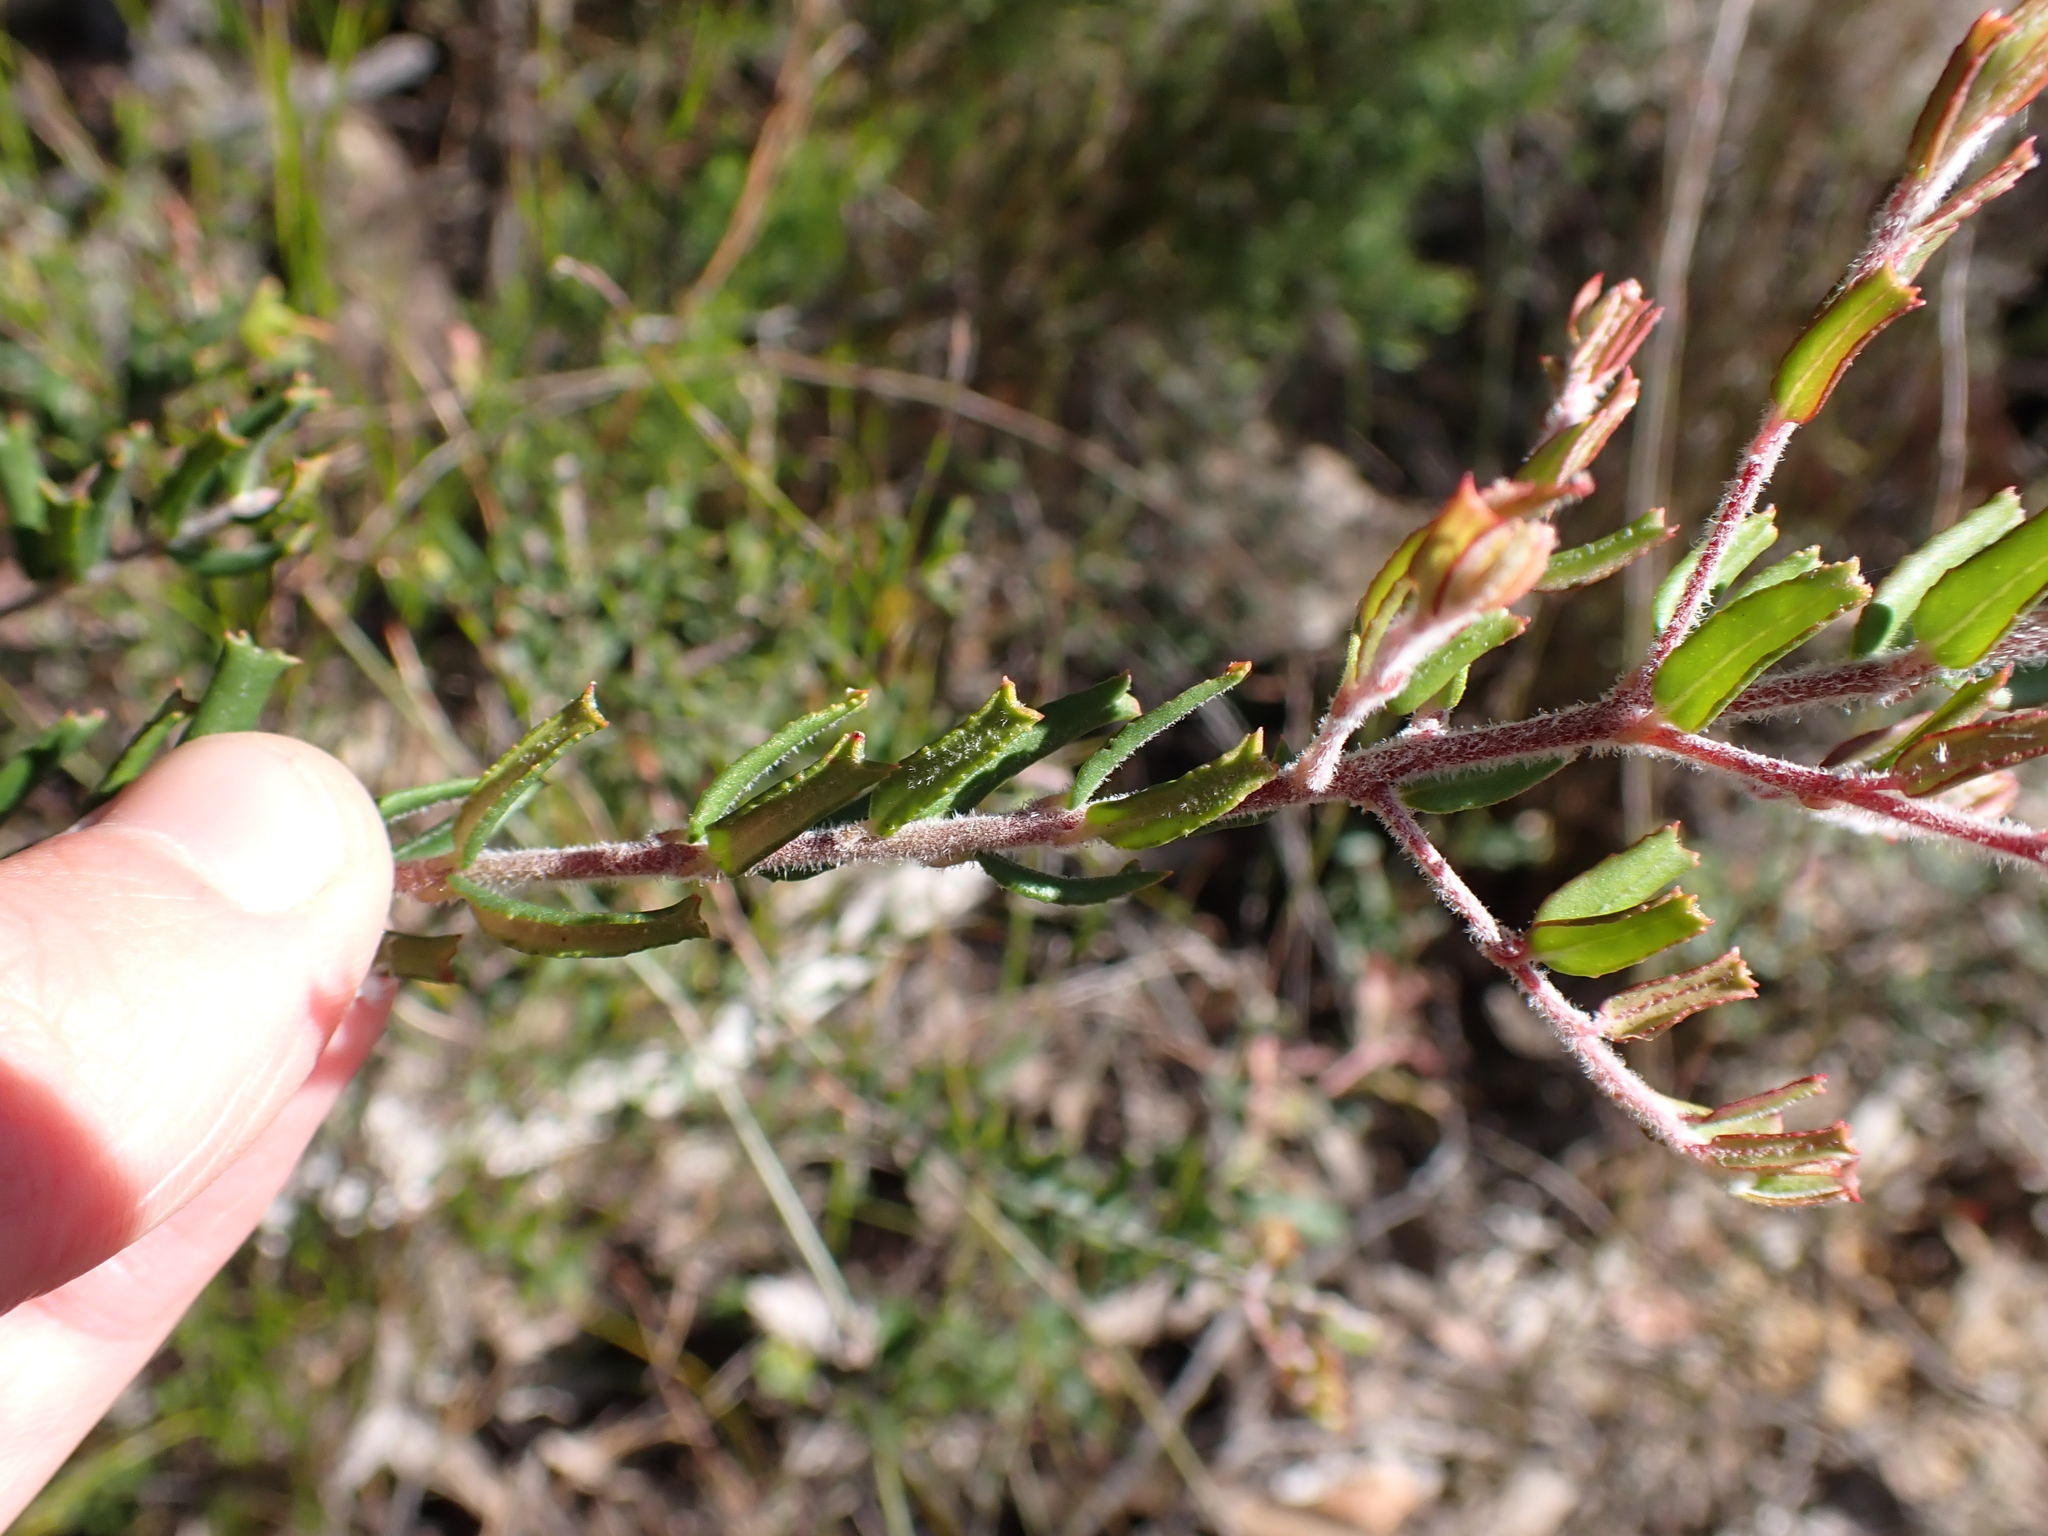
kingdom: Plantae
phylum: Tracheophyta
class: Magnoliopsida
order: Sapindales
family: Rutaceae
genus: Leionema
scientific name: Leionema bilobum
